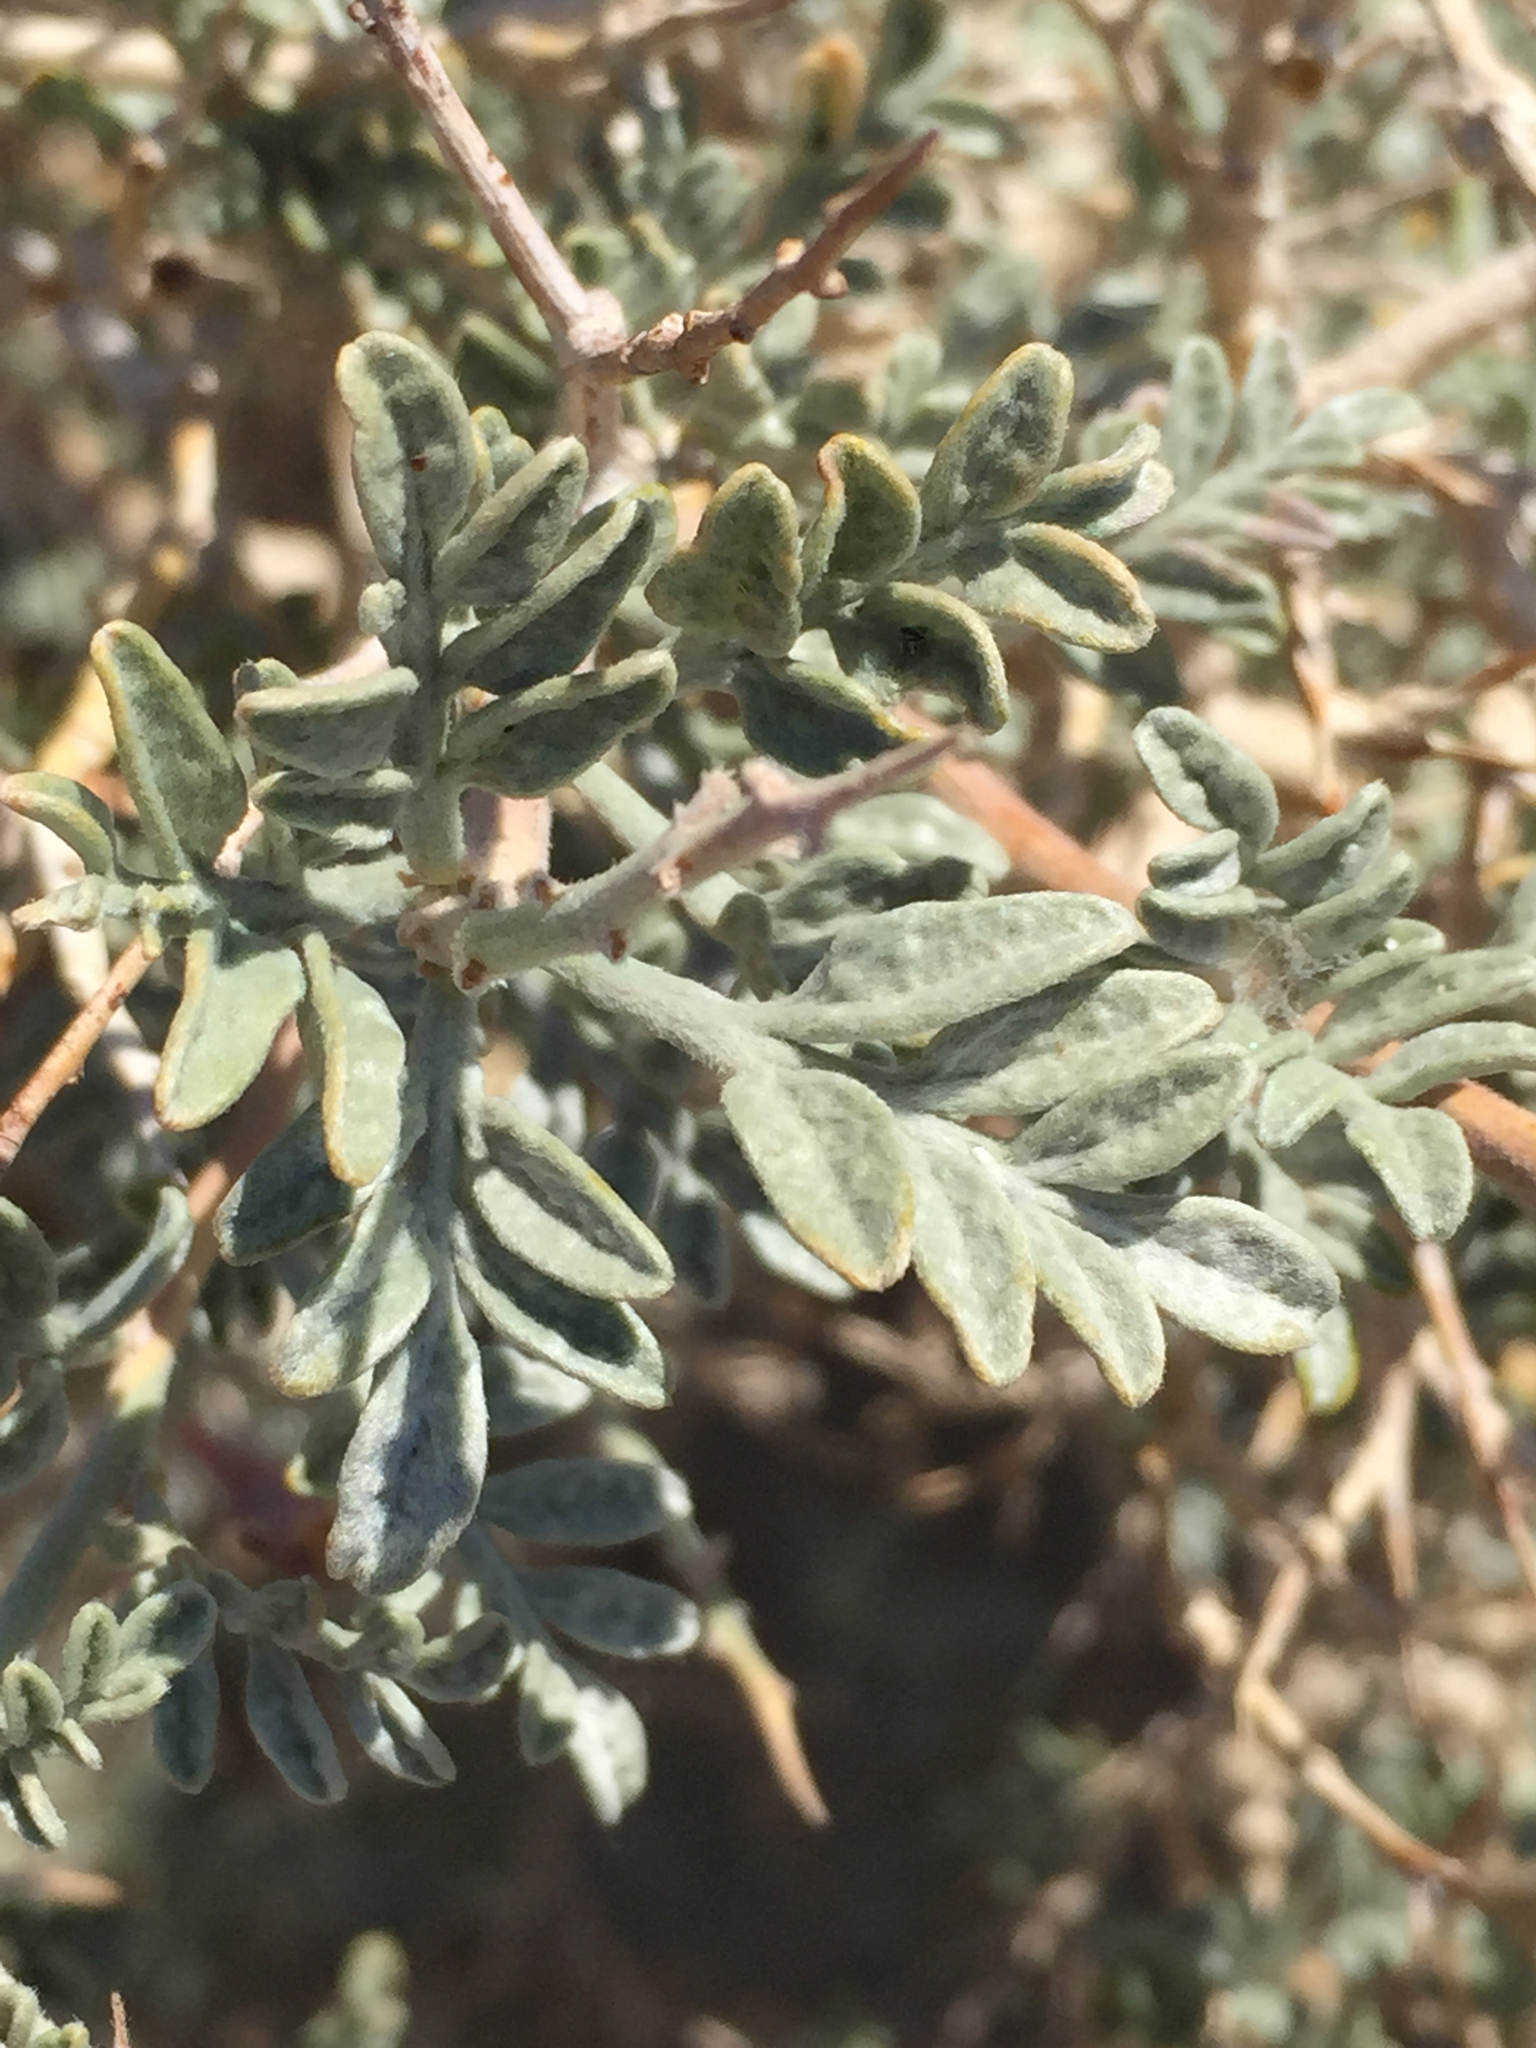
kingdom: Plantae
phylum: Tracheophyta
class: Magnoliopsida
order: Fabales
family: Fabaceae
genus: Psorothamnus
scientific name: Psorothamnus arborescens
